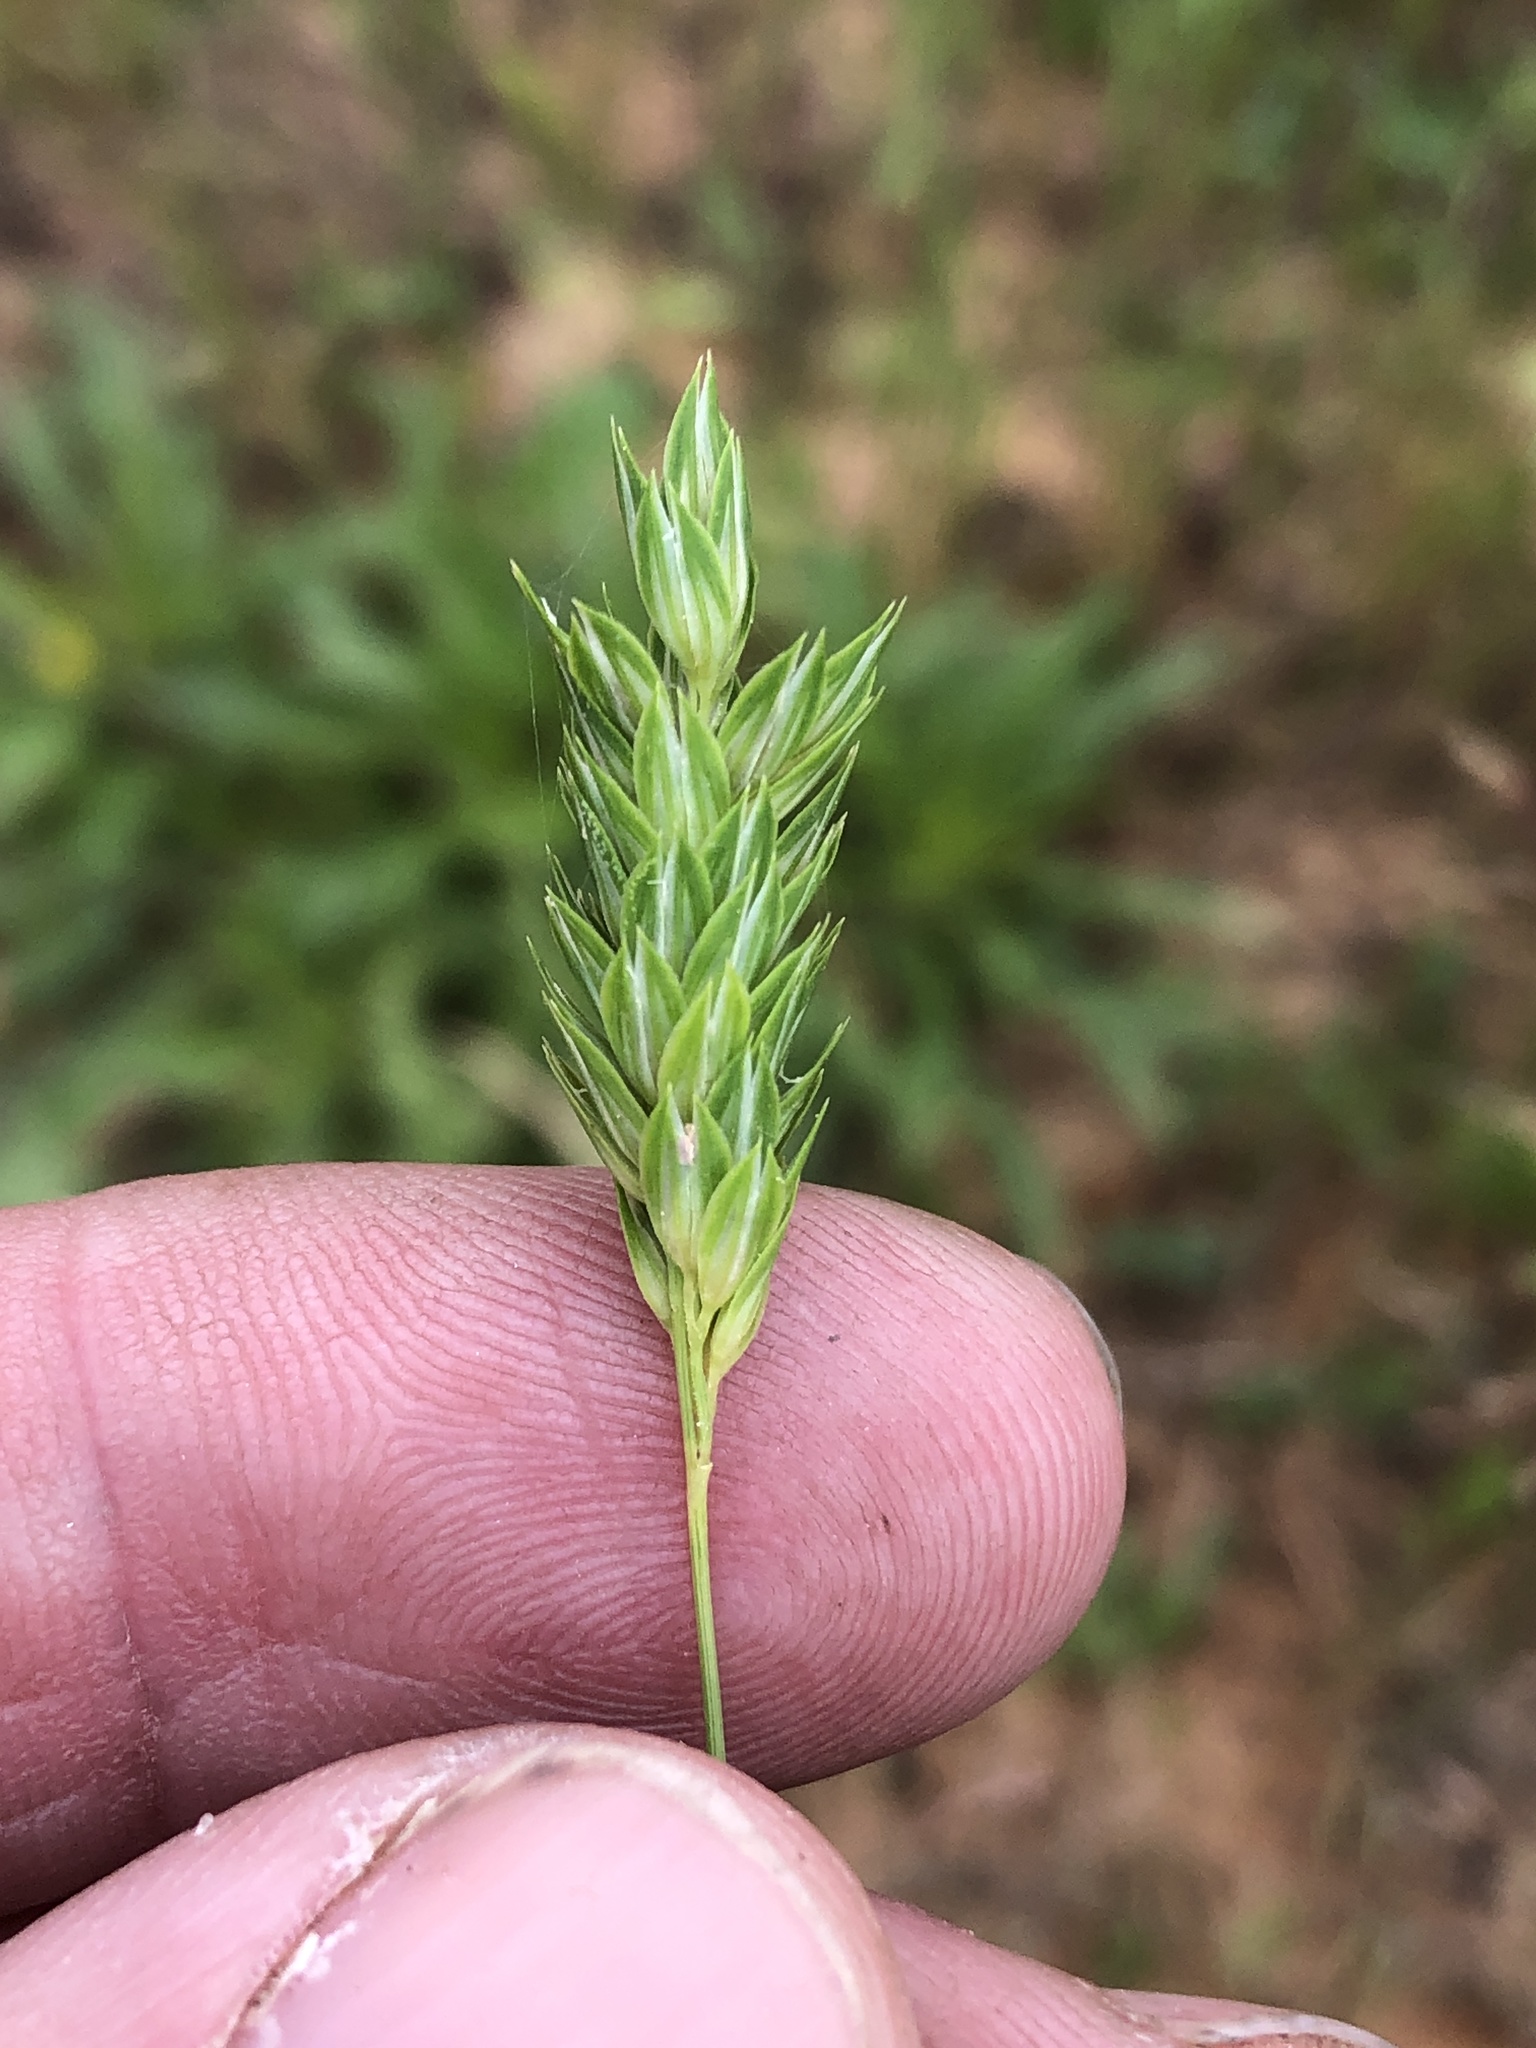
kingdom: Plantae
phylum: Tracheophyta
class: Liliopsida
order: Poales
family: Poaceae
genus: Phalaris
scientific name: Phalaris caroliniana
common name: May grass
